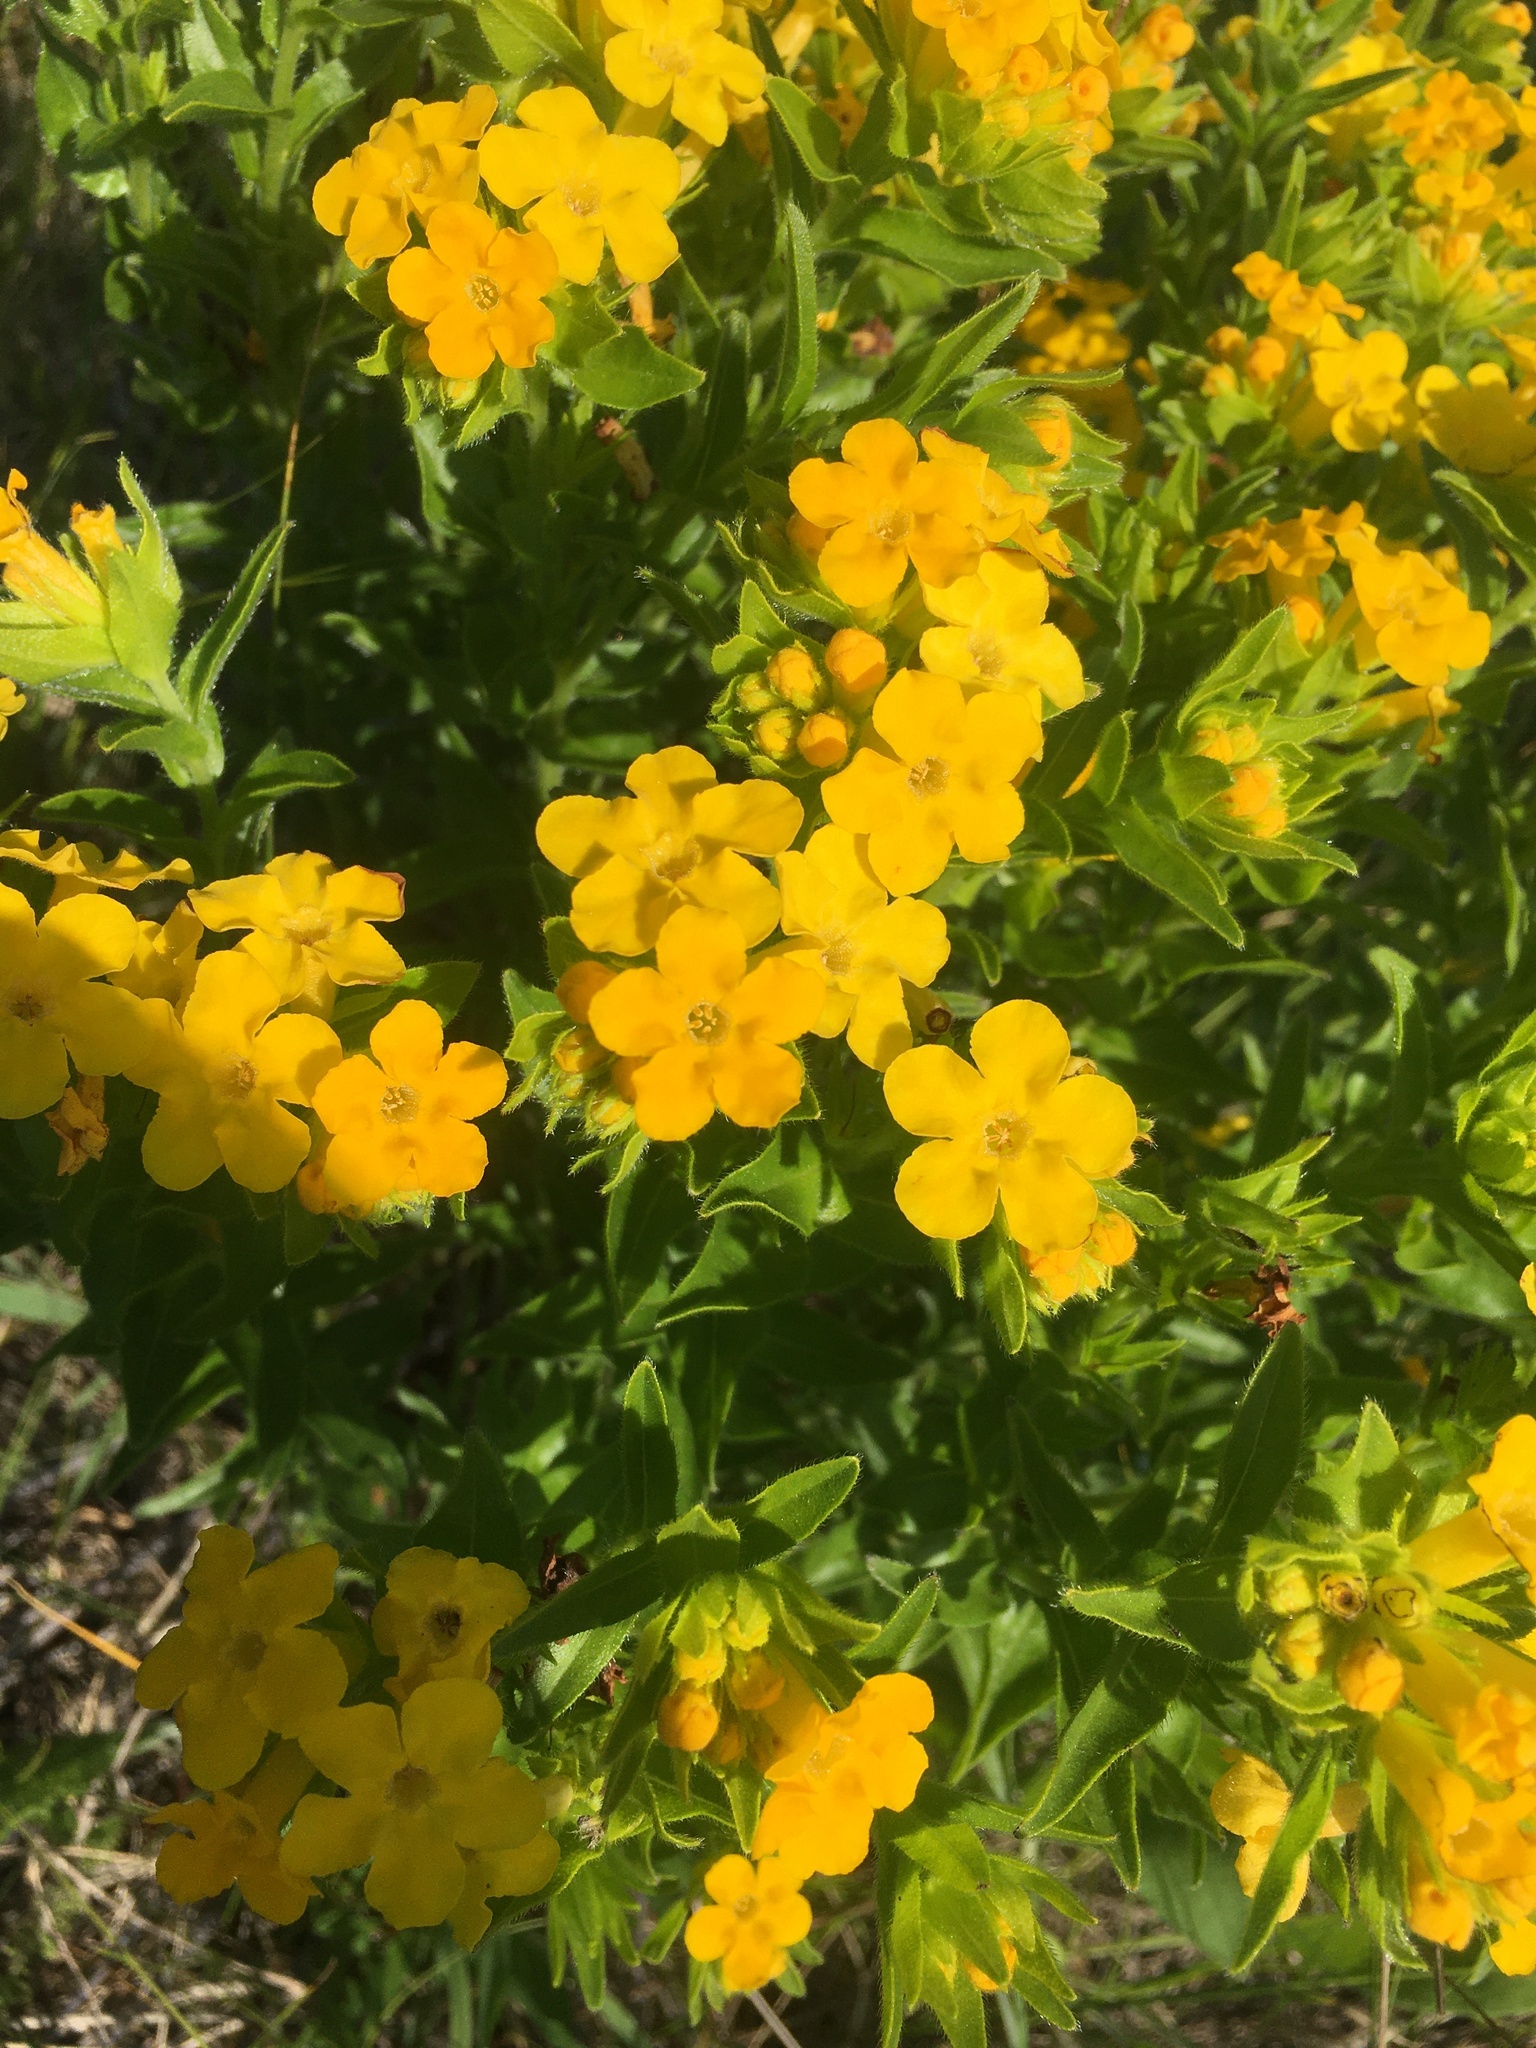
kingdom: Plantae
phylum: Tracheophyta
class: Magnoliopsida
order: Boraginales
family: Boraginaceae
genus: Lithospermum
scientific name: Lithospermum caroliniense
